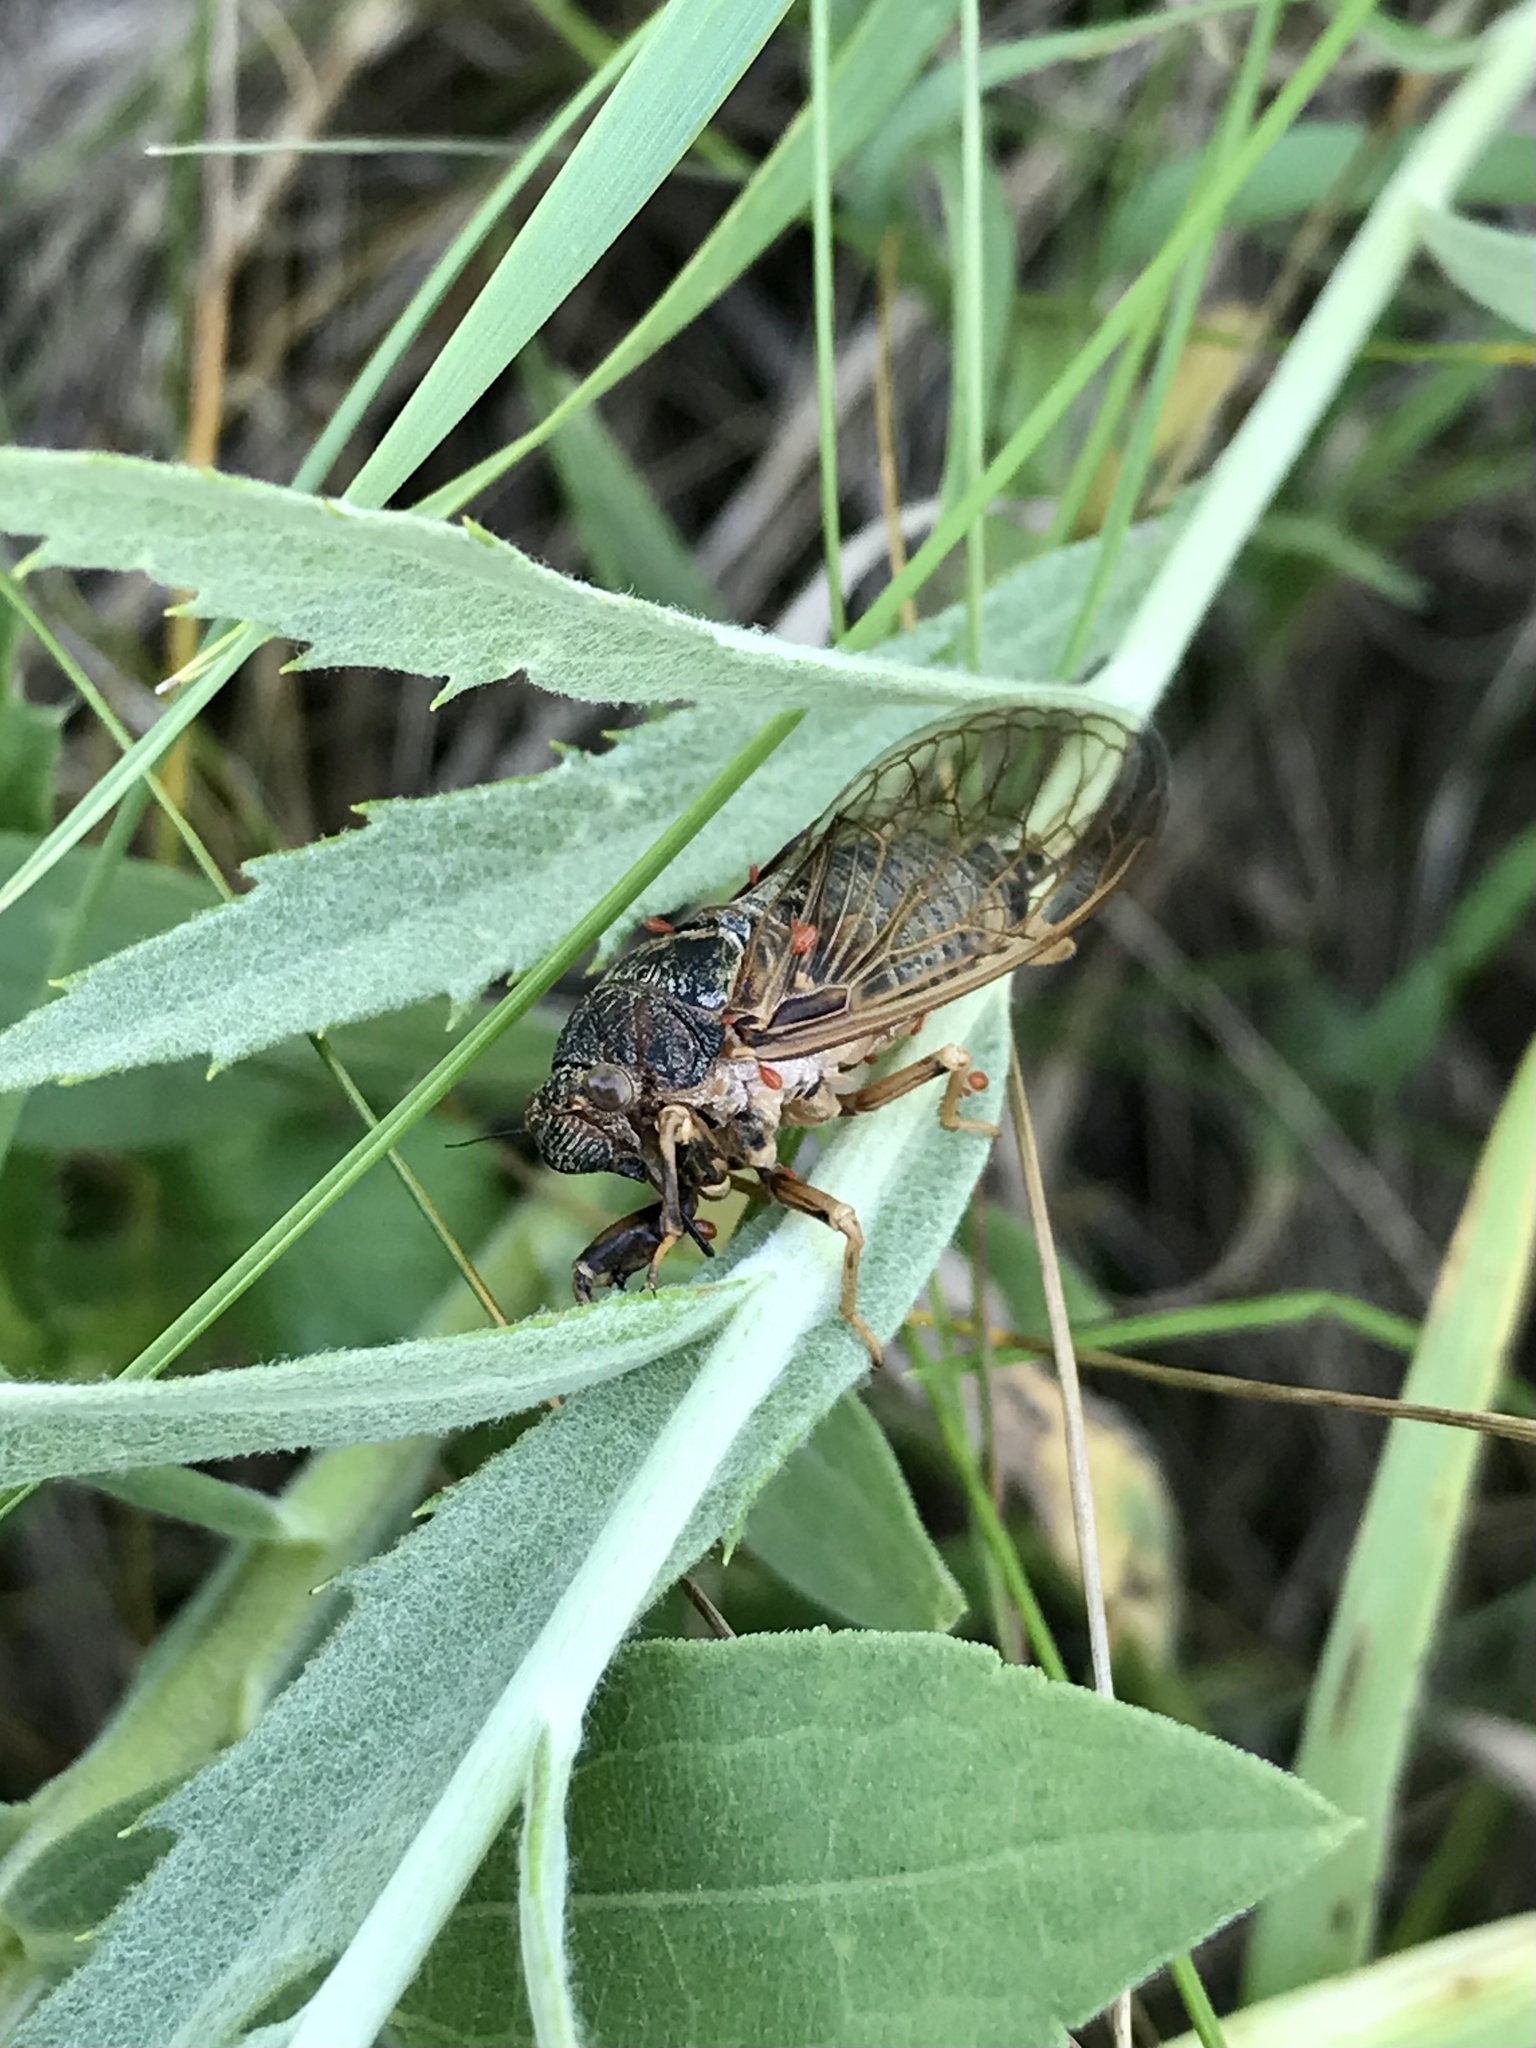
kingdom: Animalia
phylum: Arthropoda
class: Insecta
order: Hemiptera
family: Cicadidae
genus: Okanagana
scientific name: Okanagana balli
